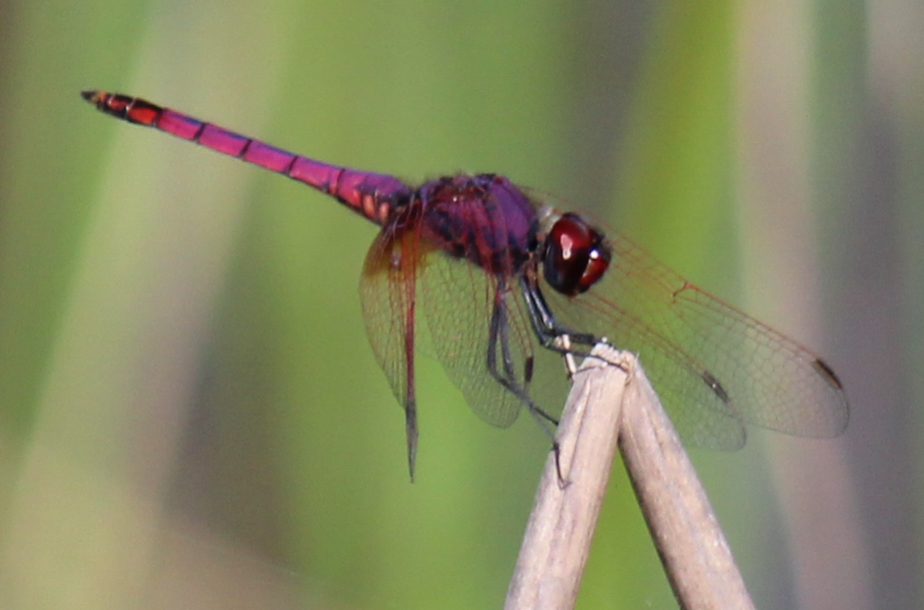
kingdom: Animalia
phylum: Arthropoda
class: Insecta
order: Odonata
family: Libellulidae
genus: Trithemis
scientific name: Trithemis annulata
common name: Violet dropwing
